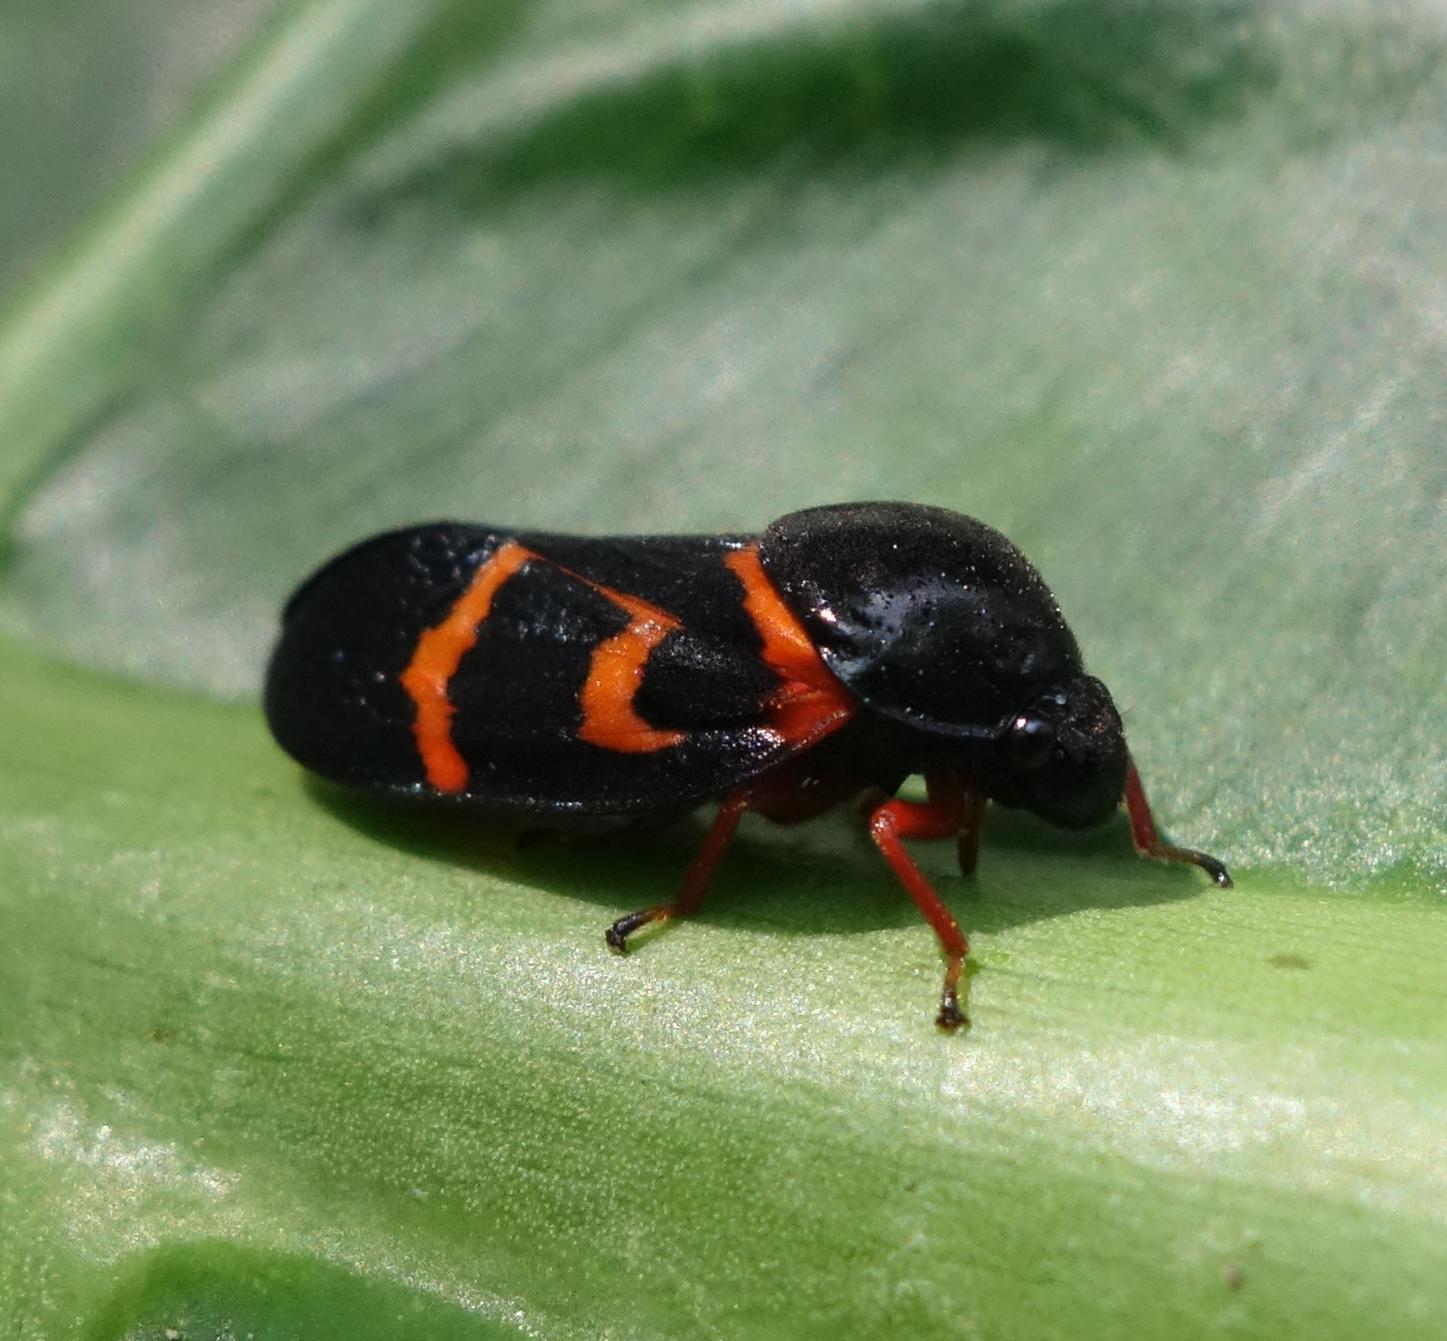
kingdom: Animalia
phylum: Arthropoda
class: Insecta
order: Hemiptera
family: Cercopidae
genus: Okiscarta
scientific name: Okiscarta uchidae
